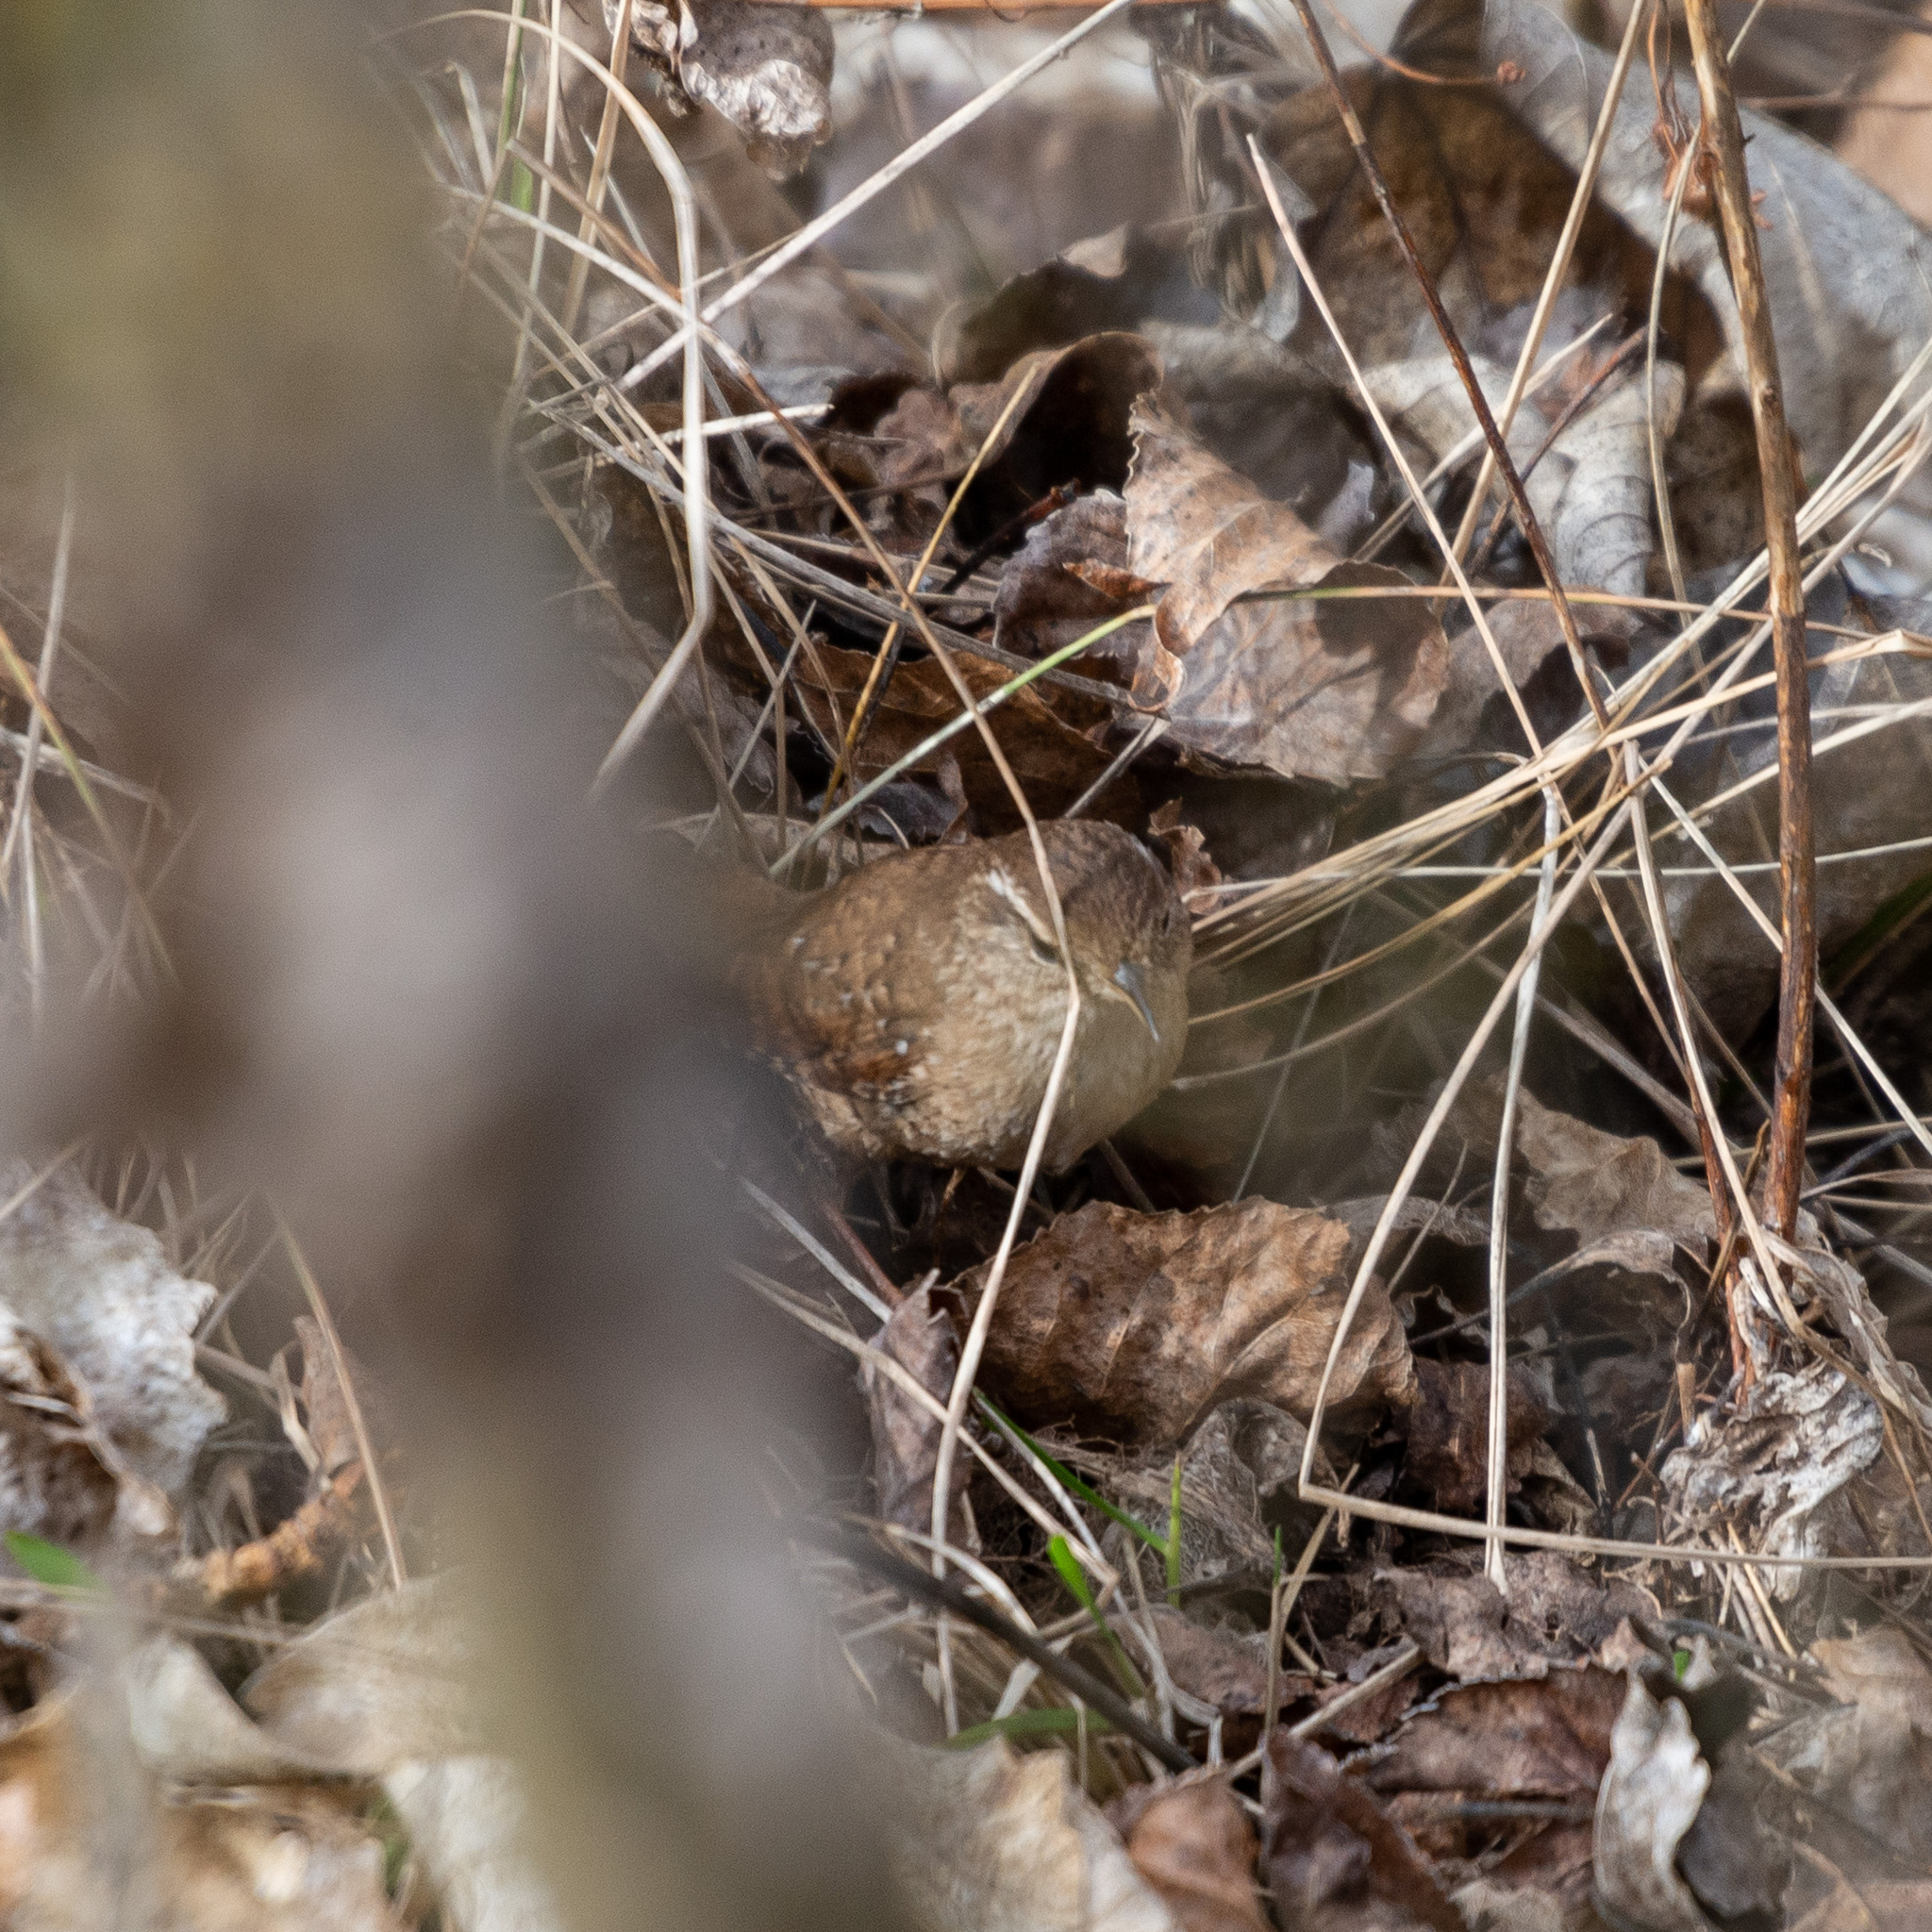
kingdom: Animalia
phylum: Chordata
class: Aves
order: Passeriformes
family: Troglodytidae
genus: Troglodytes
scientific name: Troglodytes troglodytes
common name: Eurasian wren
